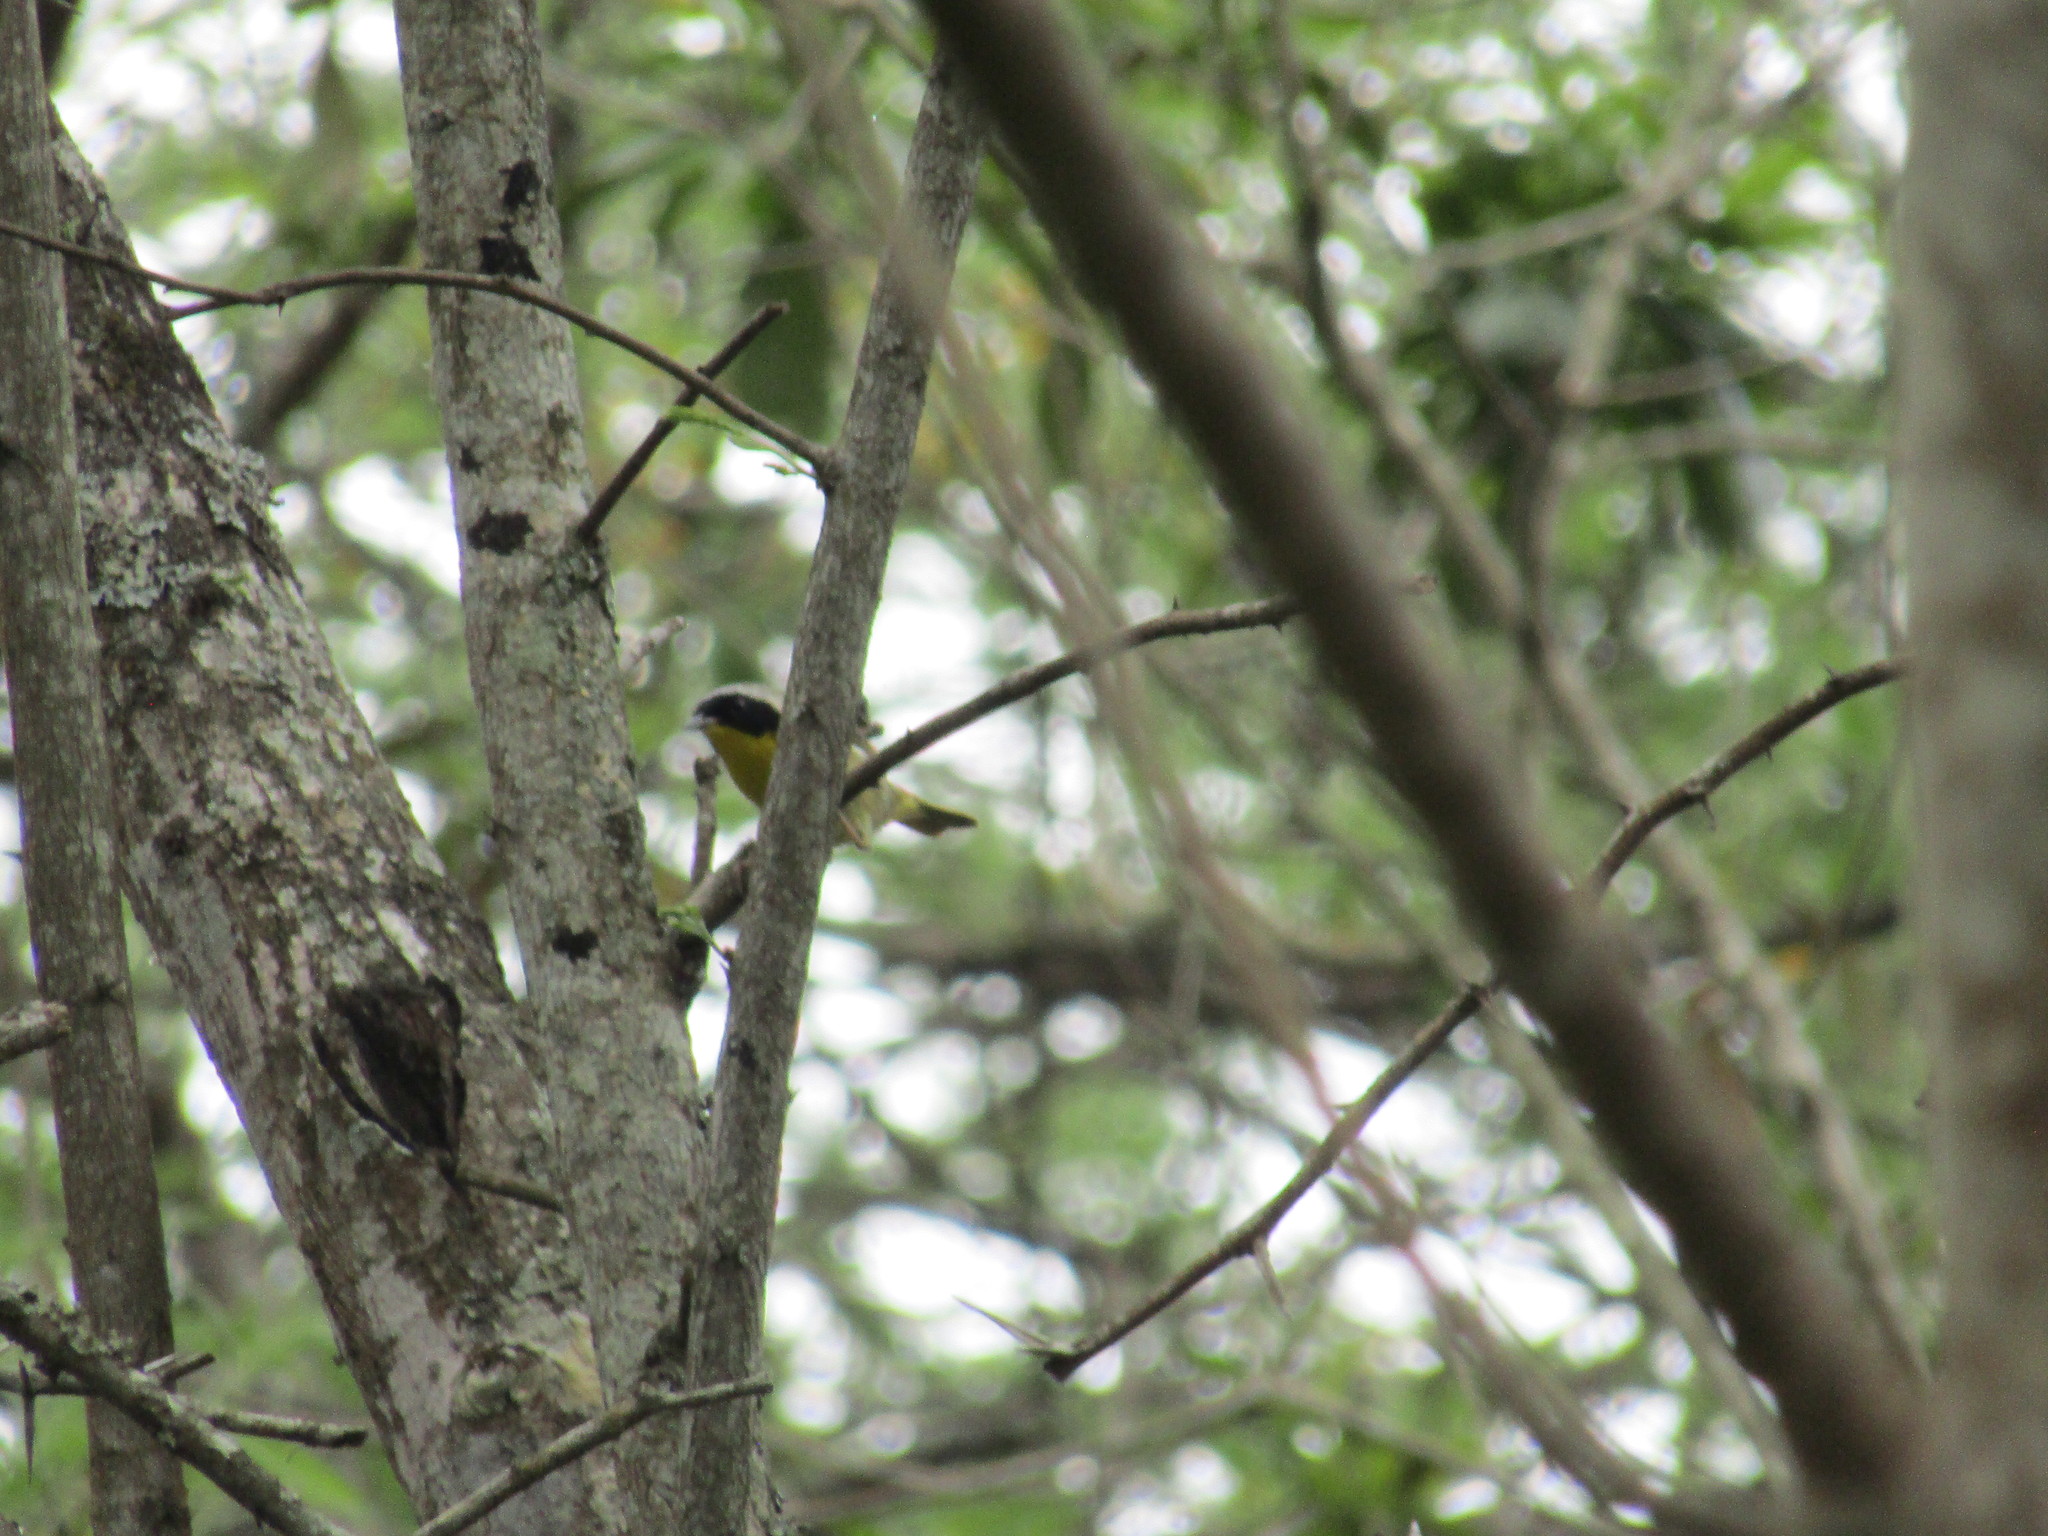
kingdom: Animalia
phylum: Chordata
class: Aves
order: Passeriformes
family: Parulidae
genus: Geothlypis
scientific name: Geothlypis trichas
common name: Common yellowthroat
